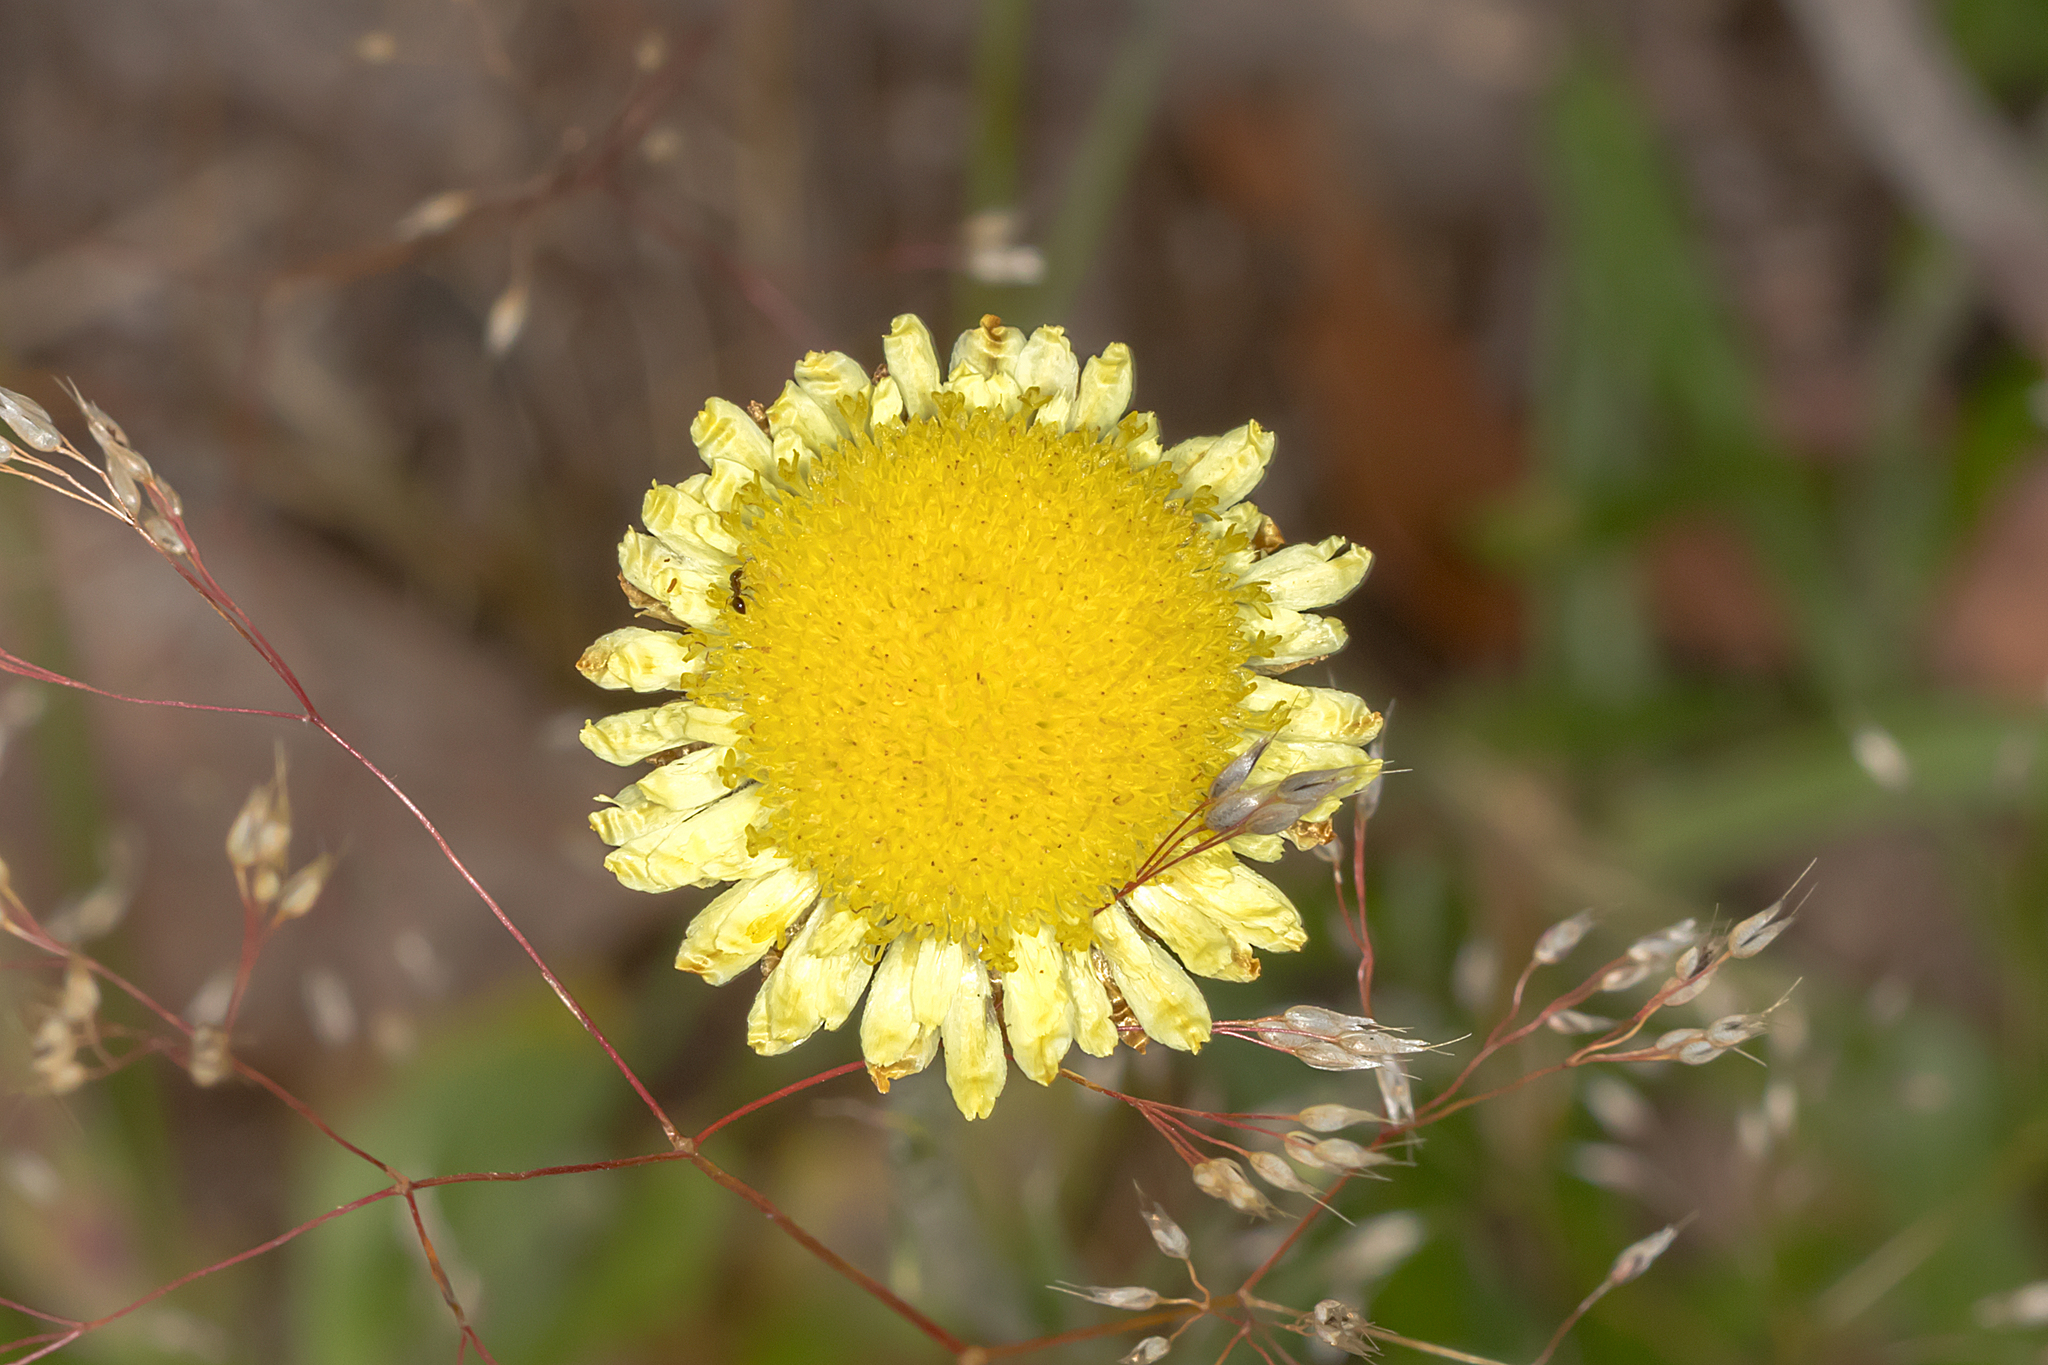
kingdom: Plantae
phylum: Tracheophyta
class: Magnoliopsida
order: Asterales
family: Asteraceae
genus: Coronidium
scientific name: Coronidium scorpioides
